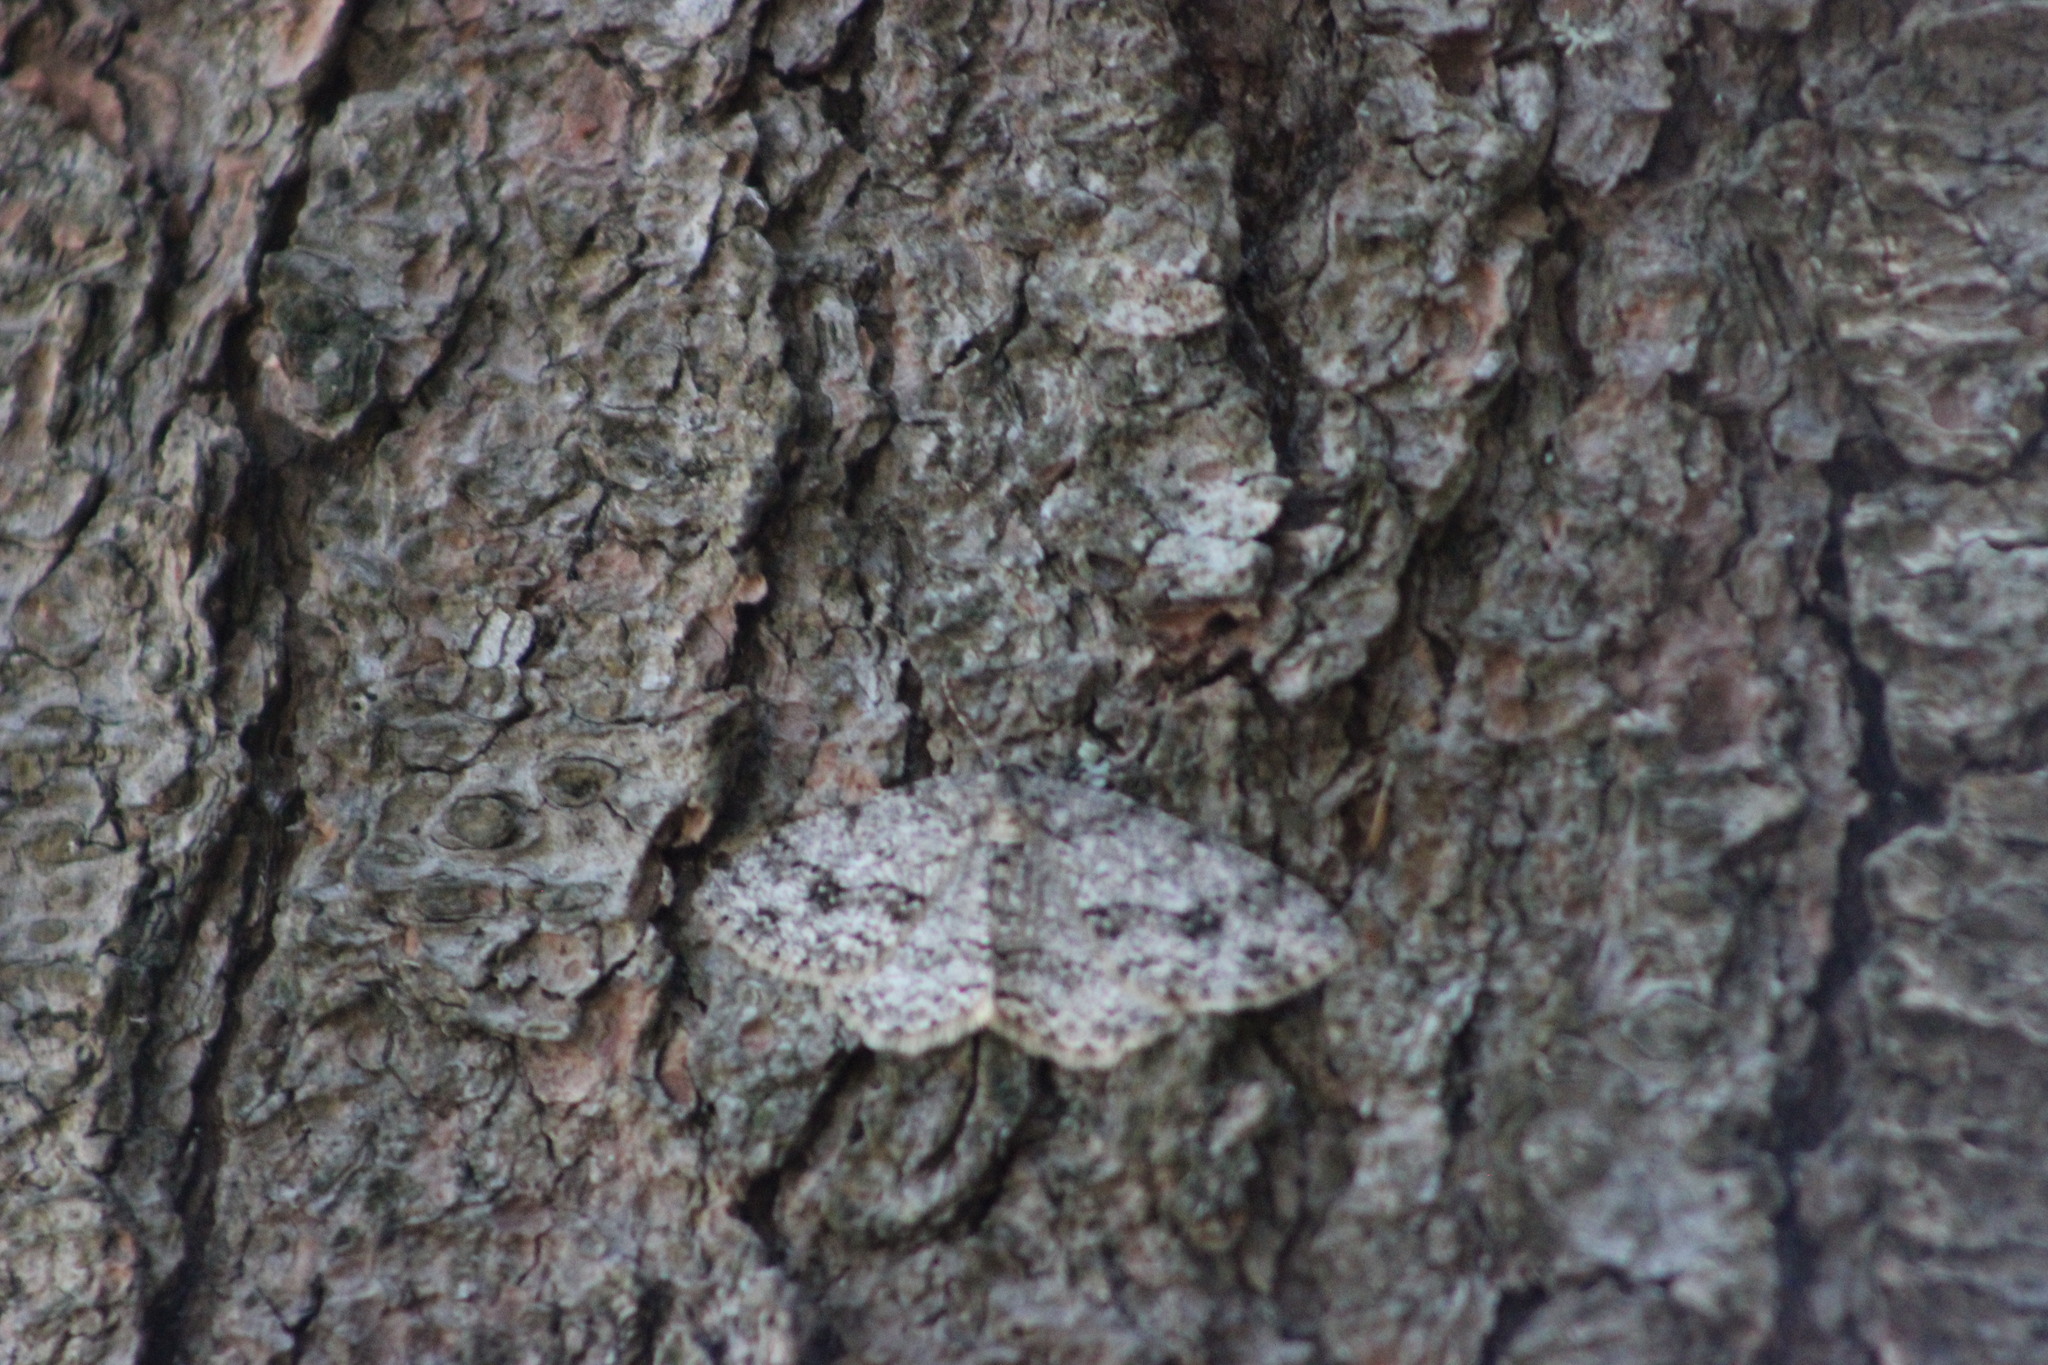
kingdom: Animalia
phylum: Arthropoda
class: Insecta
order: Lepidoptera
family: Geometridae
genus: Ectropis
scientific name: Ectropis crepuscularia
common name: Engrailed
